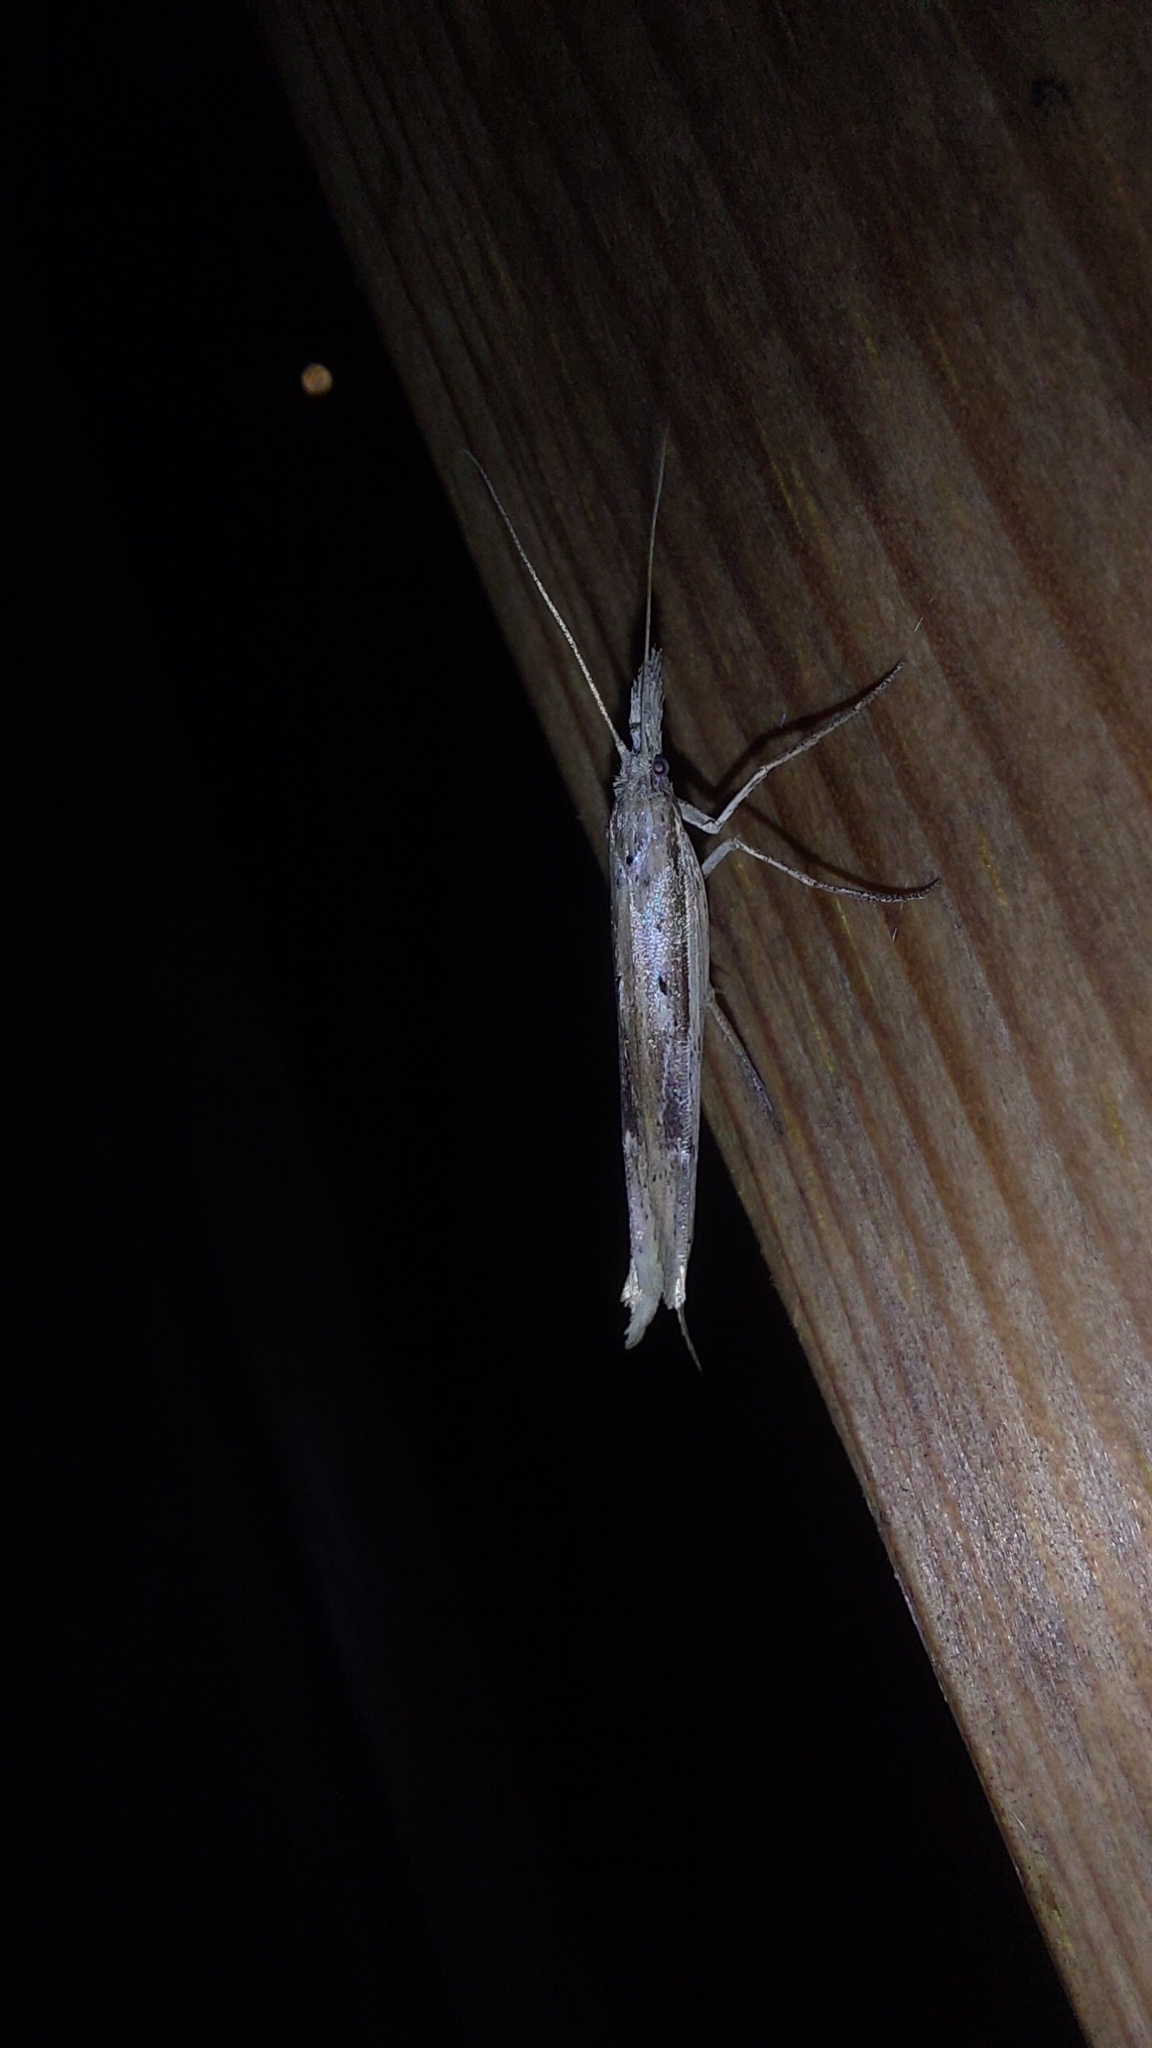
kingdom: Animalia
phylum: Arthropoda
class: Insecta
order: Lepidoptera
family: Ypsolophidae
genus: Ypsolopha
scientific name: Ypsolopha mucronella
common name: Spindle smudge
